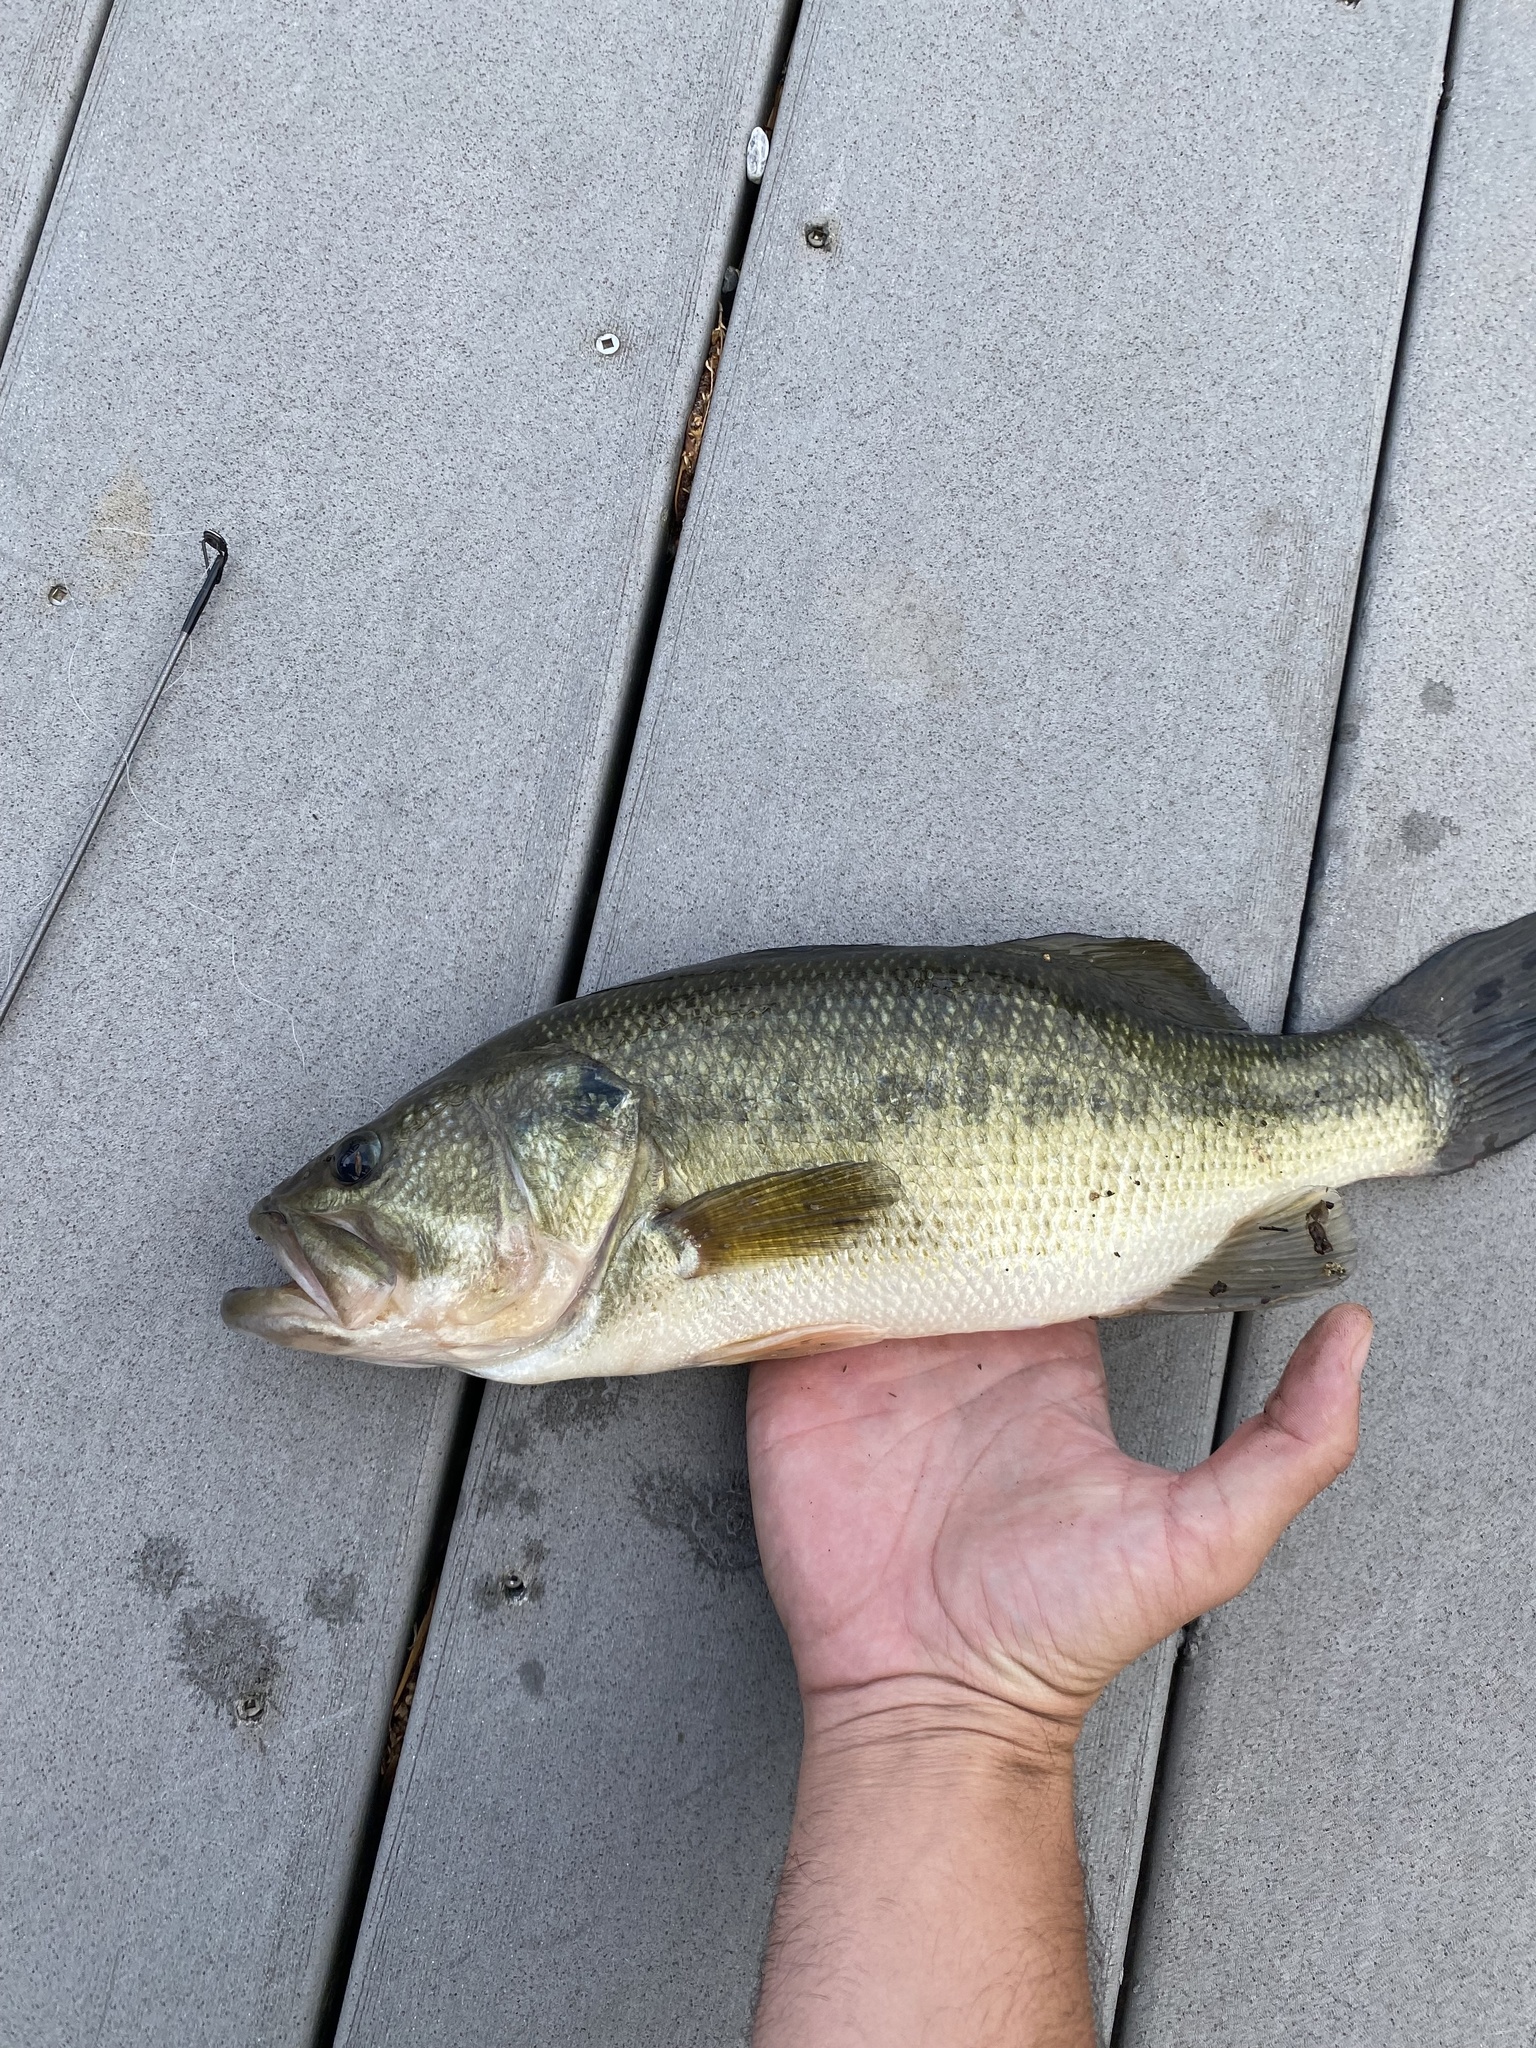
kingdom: Animalia
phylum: Chordata
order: Perciformes
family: Centrarchidae
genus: Micropterus
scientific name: Micropterus
